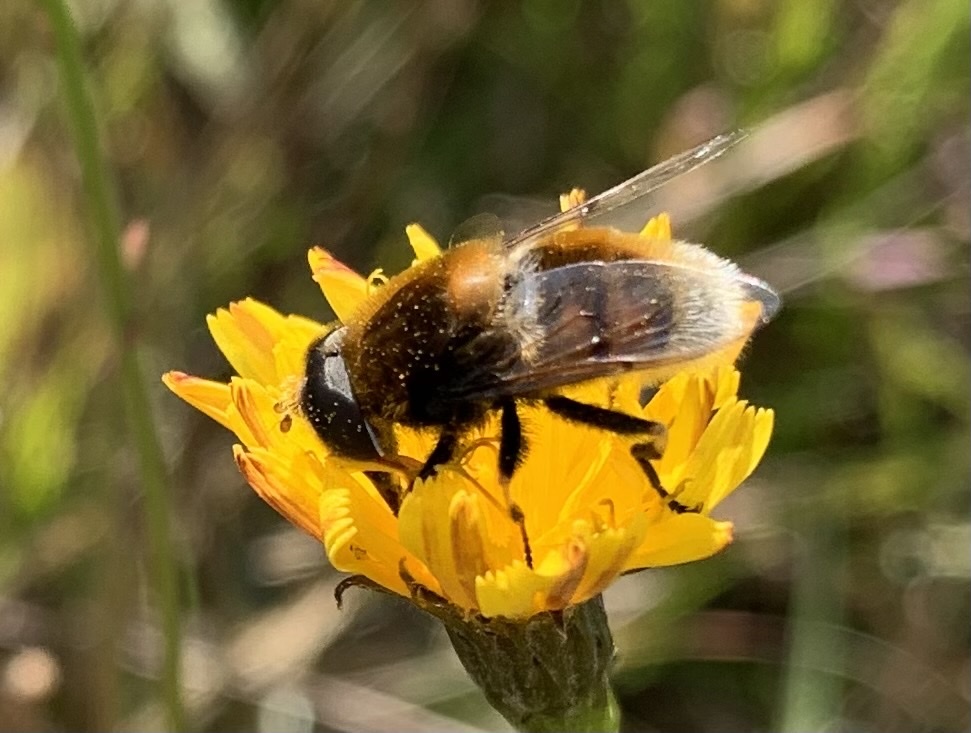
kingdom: Animalia
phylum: Arthropoda
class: Insecta
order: Diptera
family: Syrphidae
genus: Eristalis
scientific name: Eristalis intricaria
